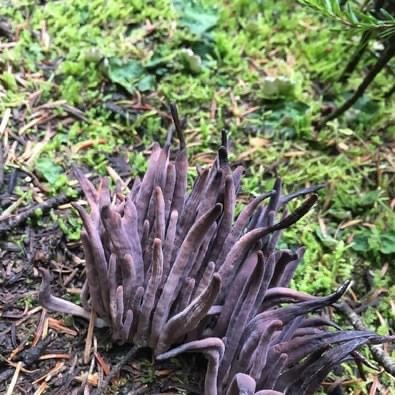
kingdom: Fungi
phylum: Basidiomycota
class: Agaricomycetes
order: Hymenochaetales
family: Rickenellaceae
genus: Alloclavaria
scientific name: Alloclavaria purpurea
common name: Purple spindles
